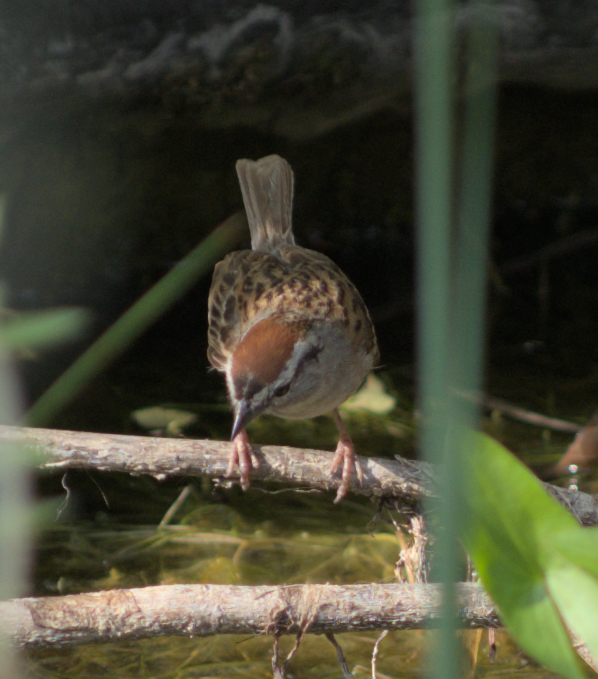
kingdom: Animalia
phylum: Chordata
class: Aves
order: Passeriformes
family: Passerellidae
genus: Spizella
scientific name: Spizella passerina
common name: Chipping sparrow
